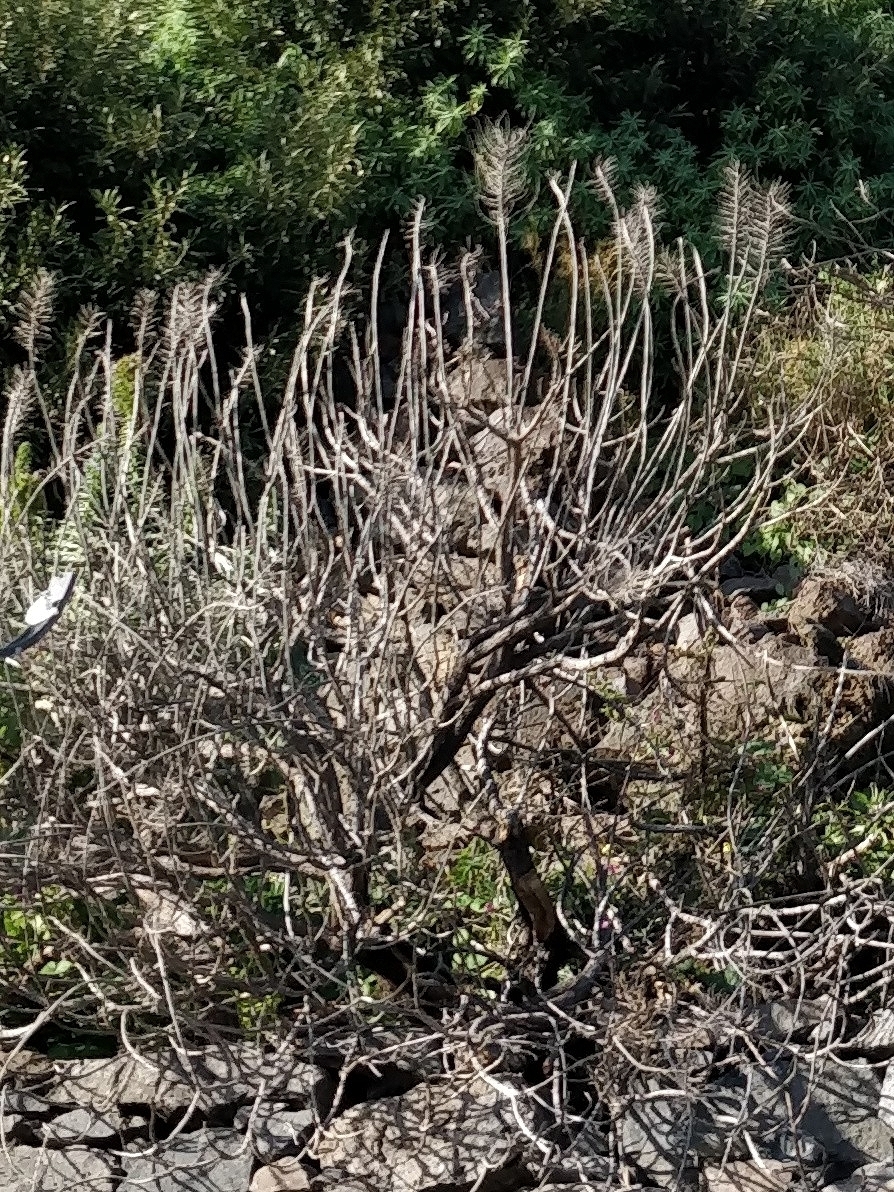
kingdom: Plantae
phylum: Tracheophyta
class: Magnoliopsida
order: Boraginales
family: Boraginaceae
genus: Echium
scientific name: Echium nervosum
